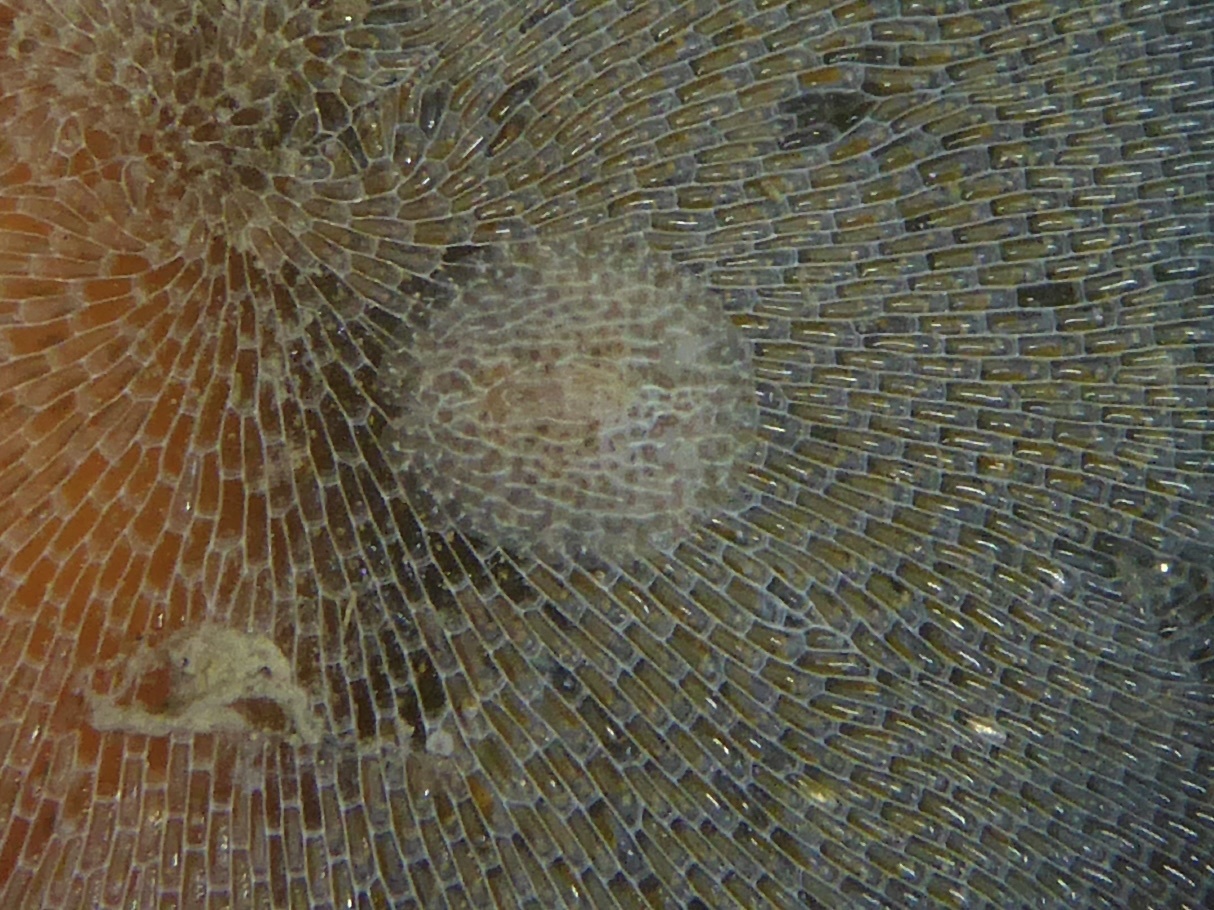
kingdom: Animalia
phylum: Mollusca
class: Gastropoda
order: Nudibranchia
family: Corambidae
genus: Corambe
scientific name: Corambe pacifica
